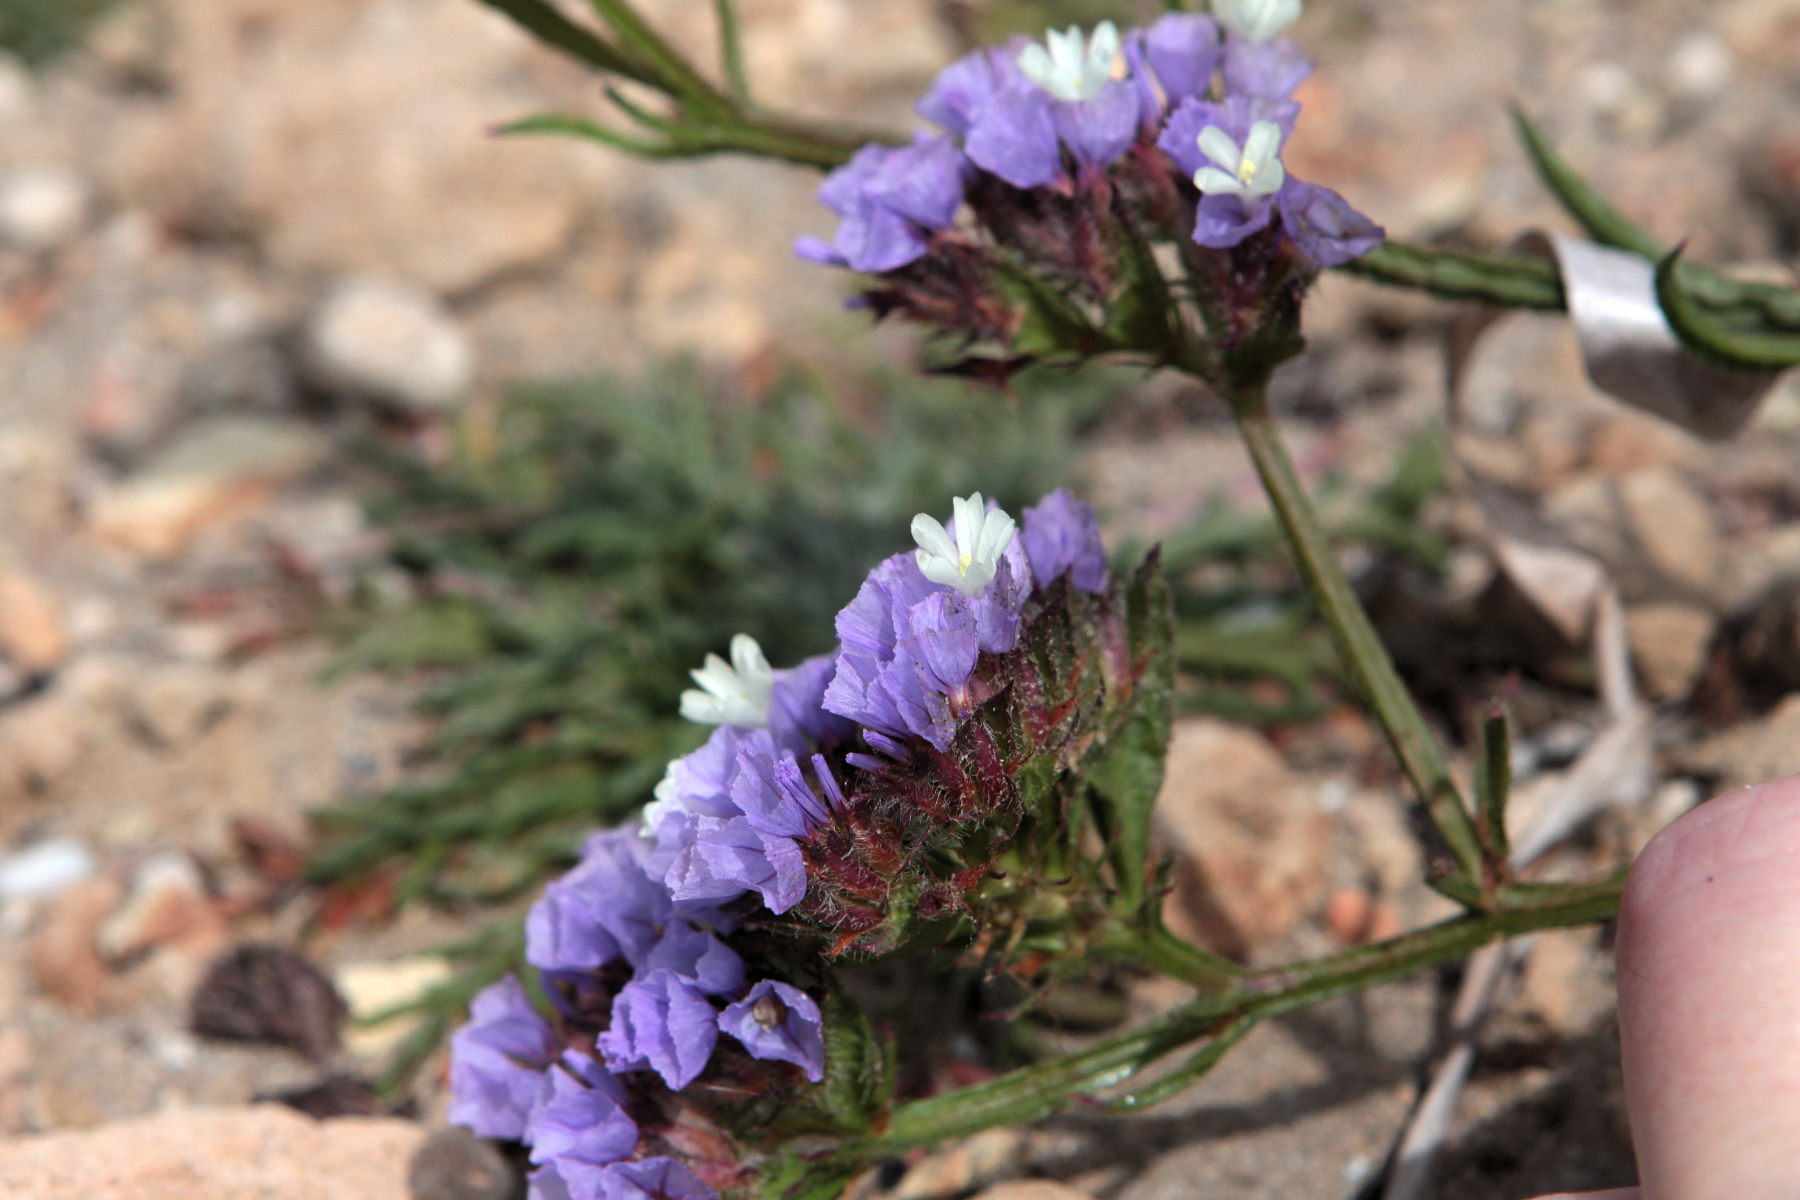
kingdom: Plantae
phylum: Tracheophyta
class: Magnoliopsida
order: Caryophyllales
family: Plumbaginaceae
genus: Limonium
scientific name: Limonium sinuatum
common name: Statice
